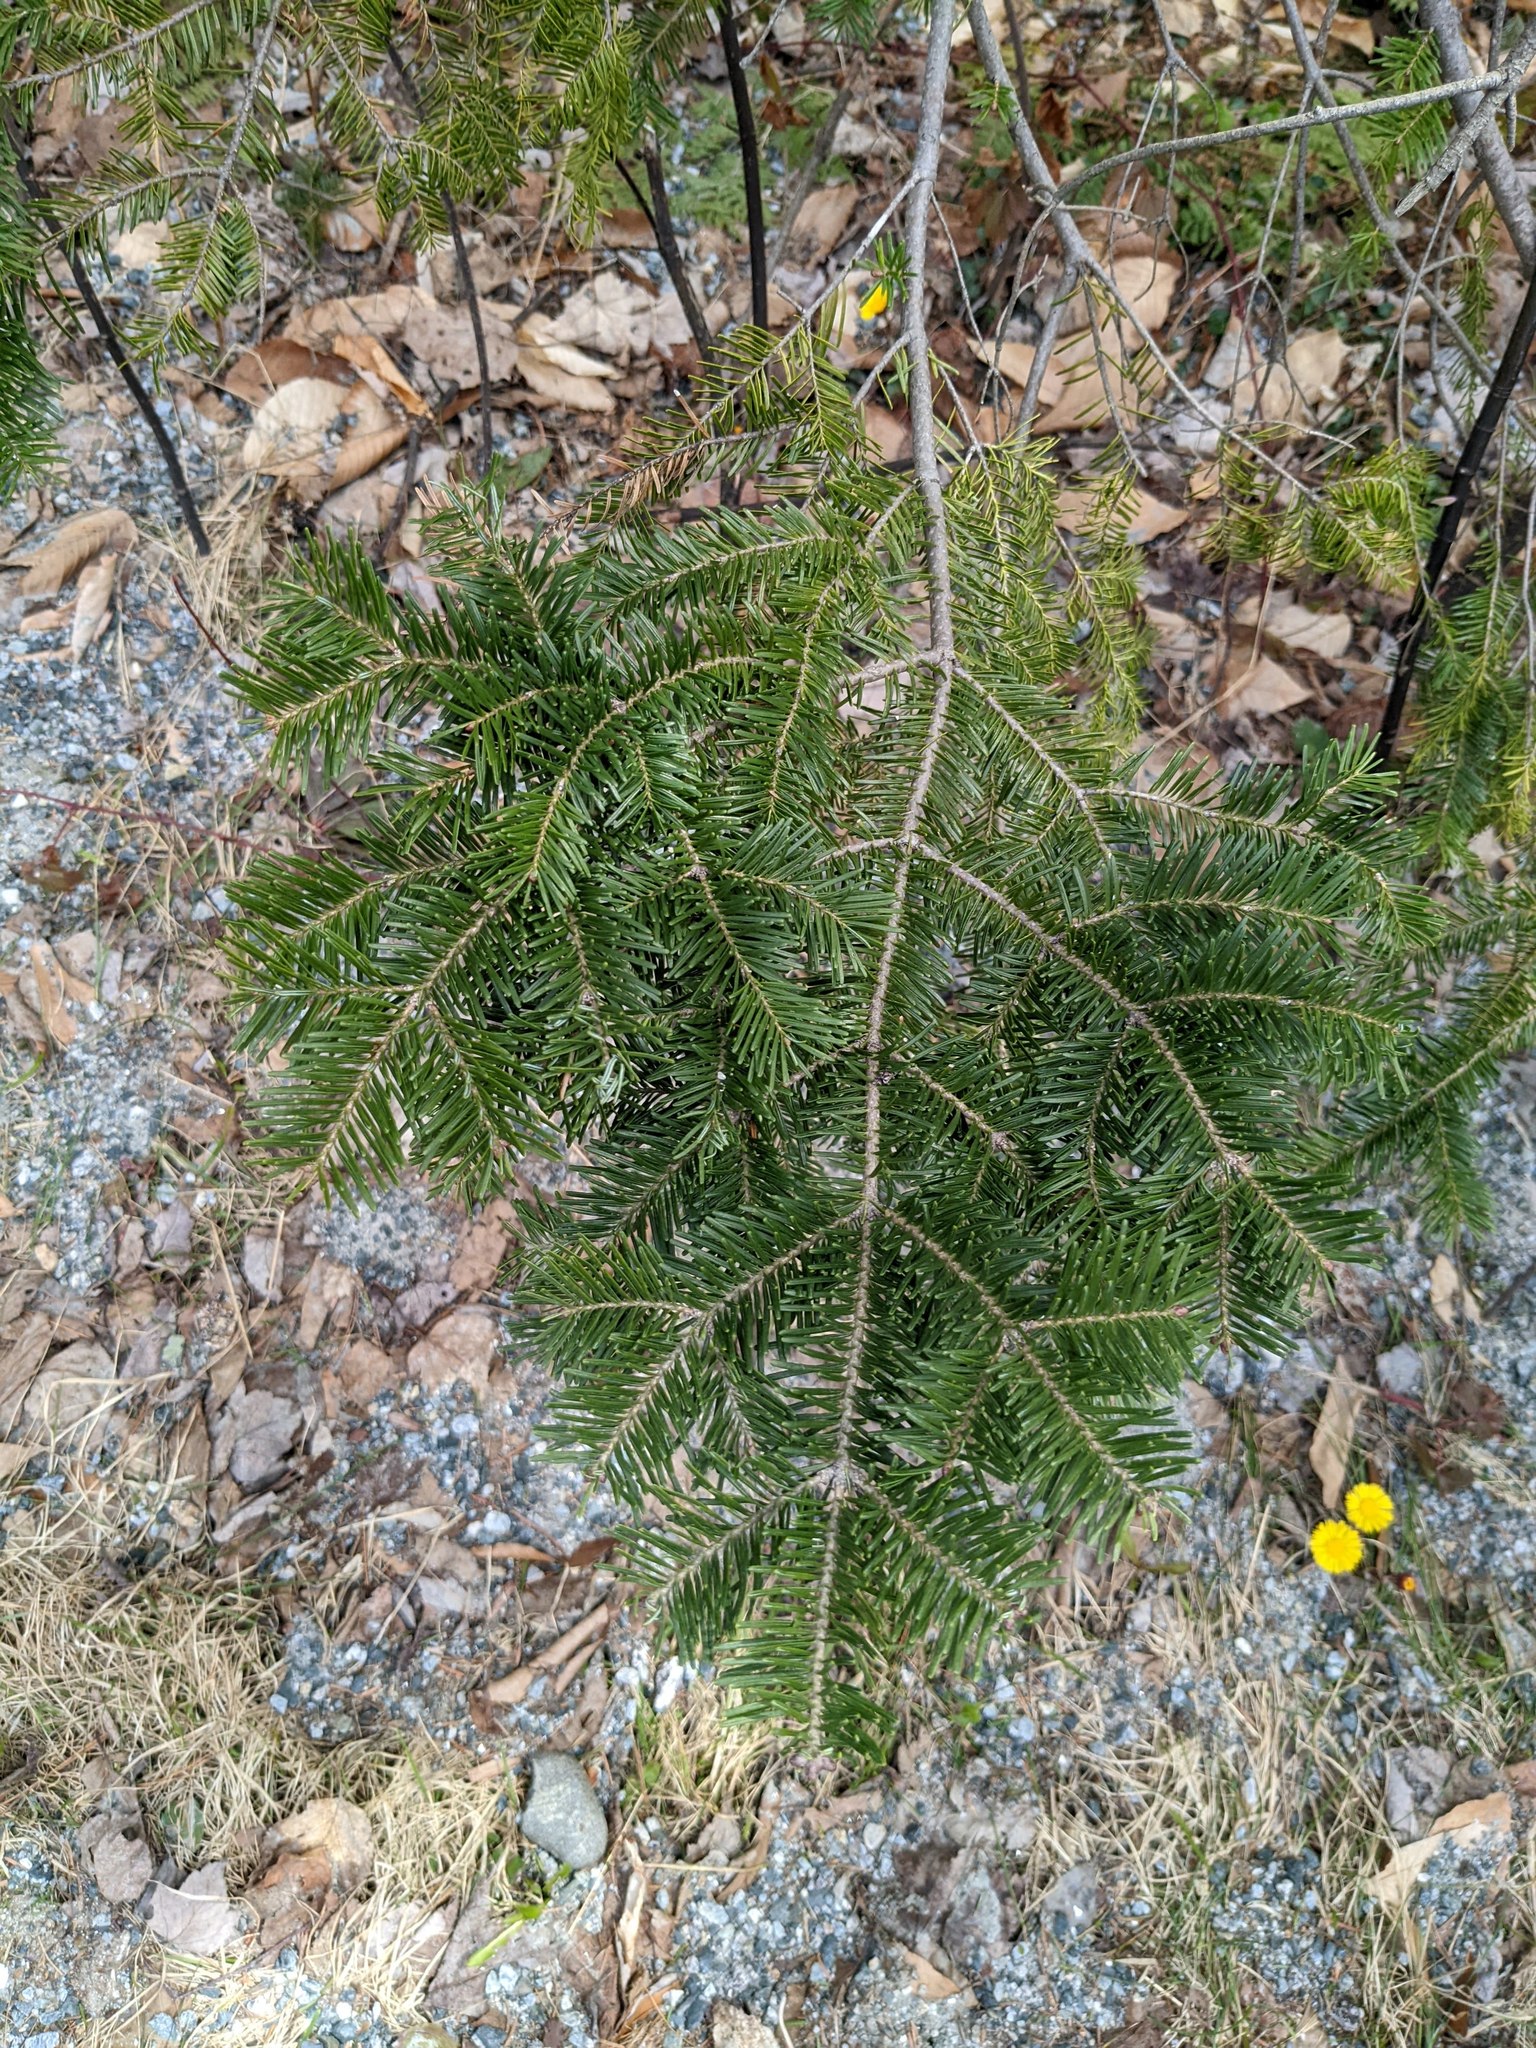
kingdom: Plantae
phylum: Tracheophyta
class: Pinopsida
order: Pinales
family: Pinaceae
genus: Abies
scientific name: Abies balsamea
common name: Balsam fir
